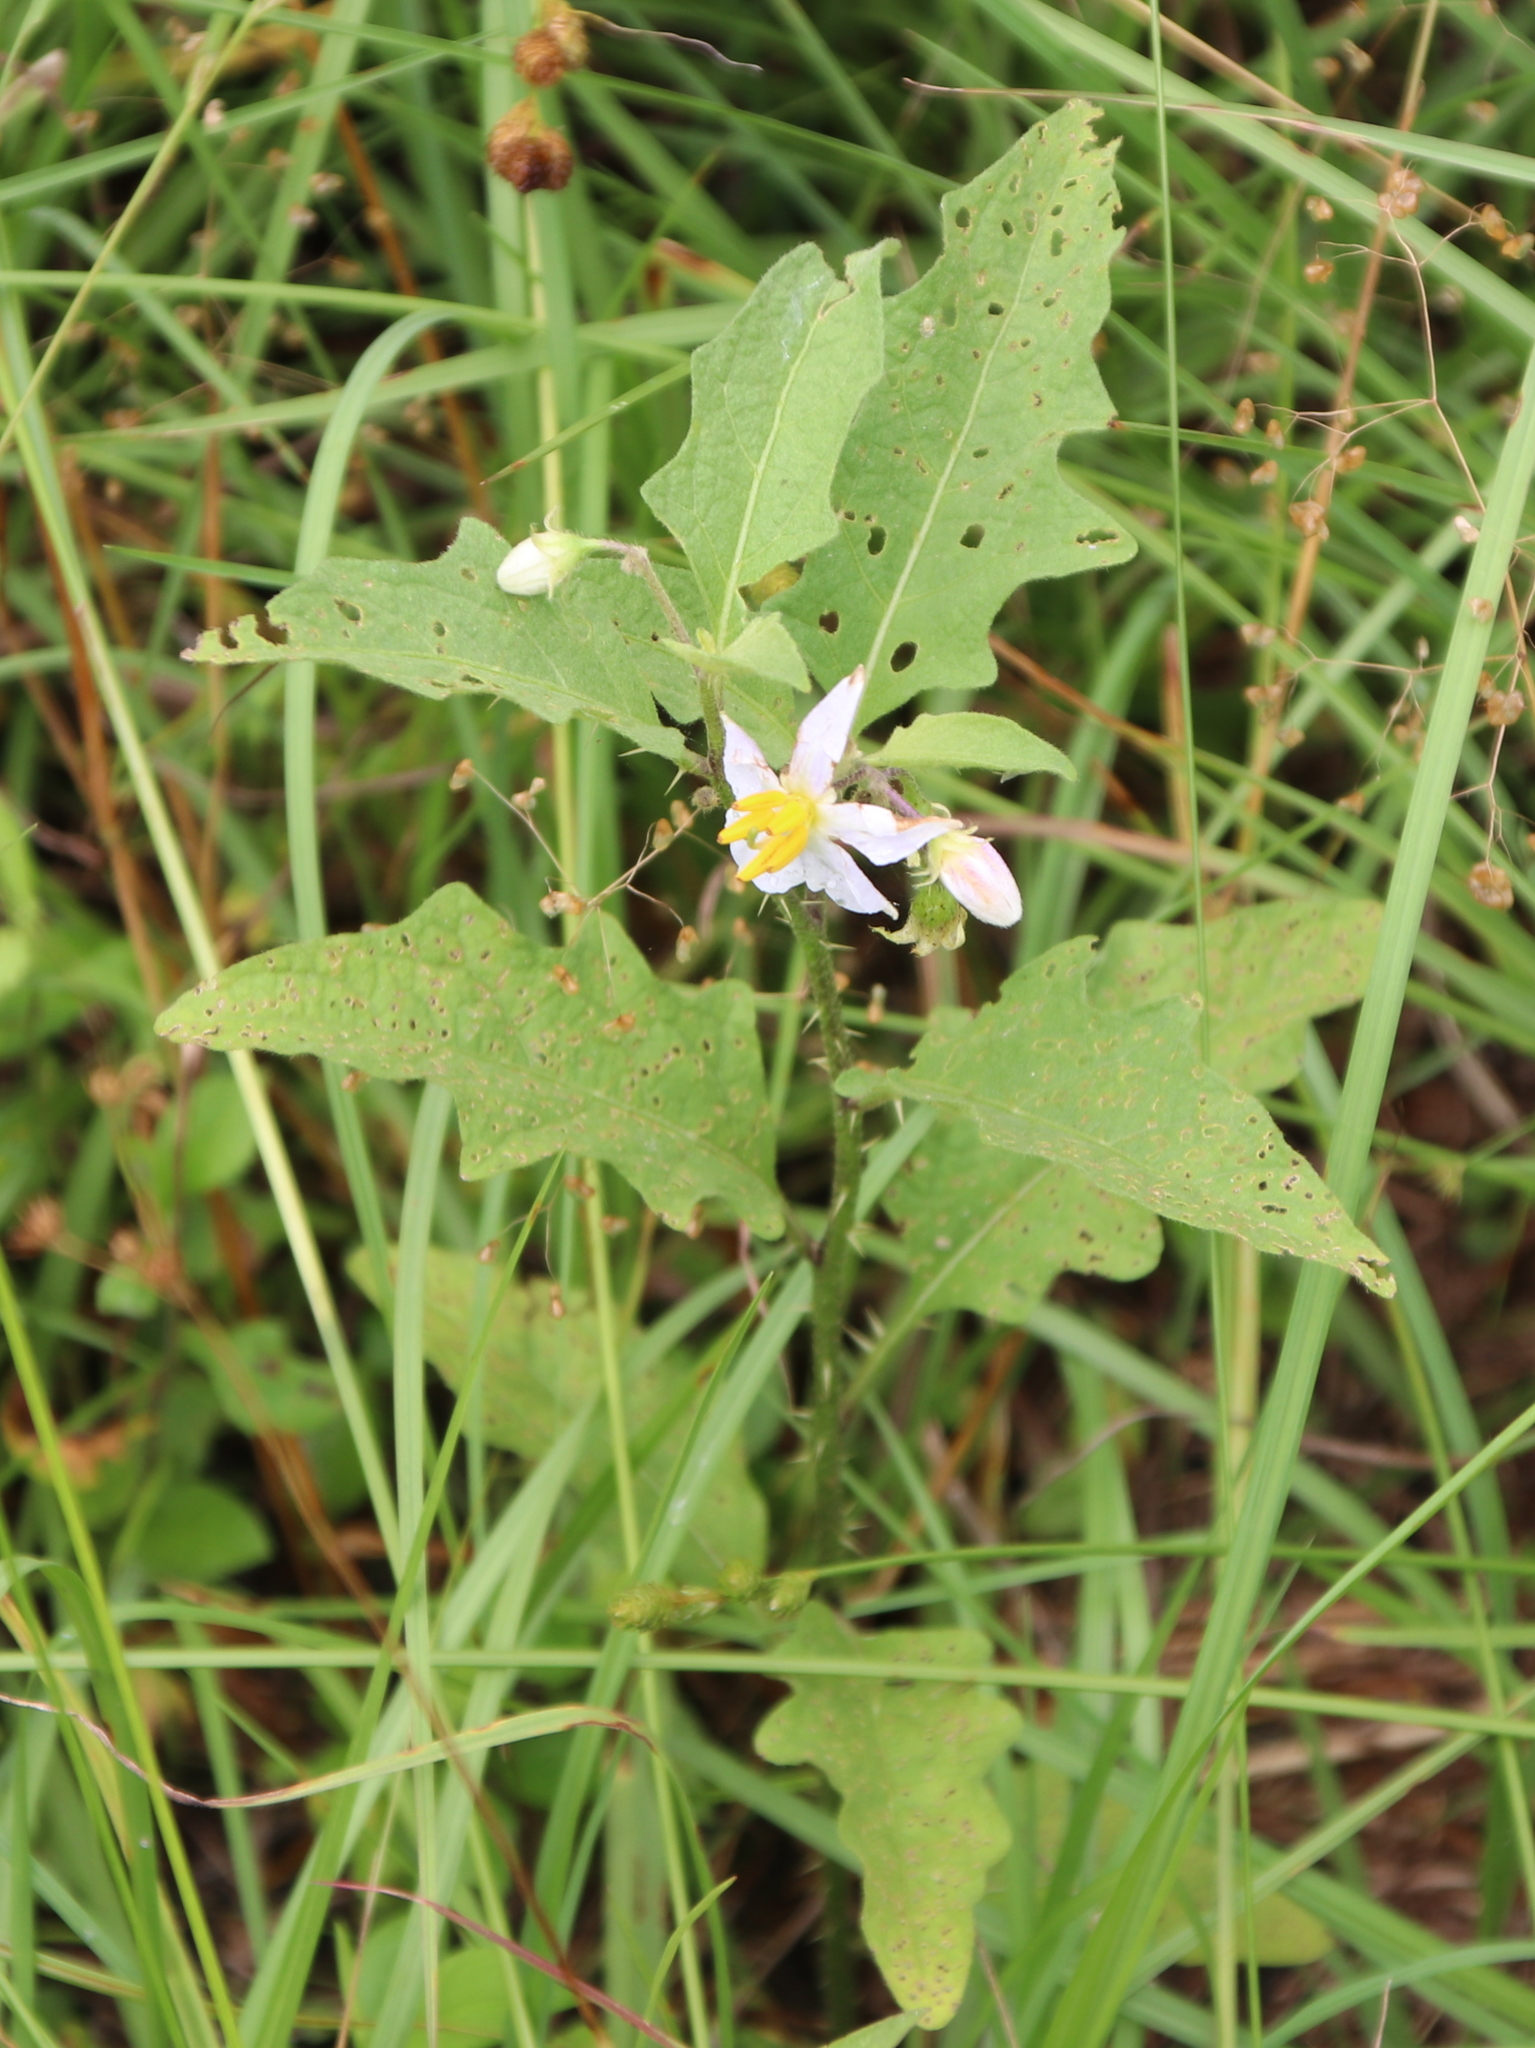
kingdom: Plantae
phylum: Tracheophyta
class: Magnoliopsida
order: Solanales
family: Solanaceae
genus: Solanum
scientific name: Solanum carolinense
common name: Horse-nettle
